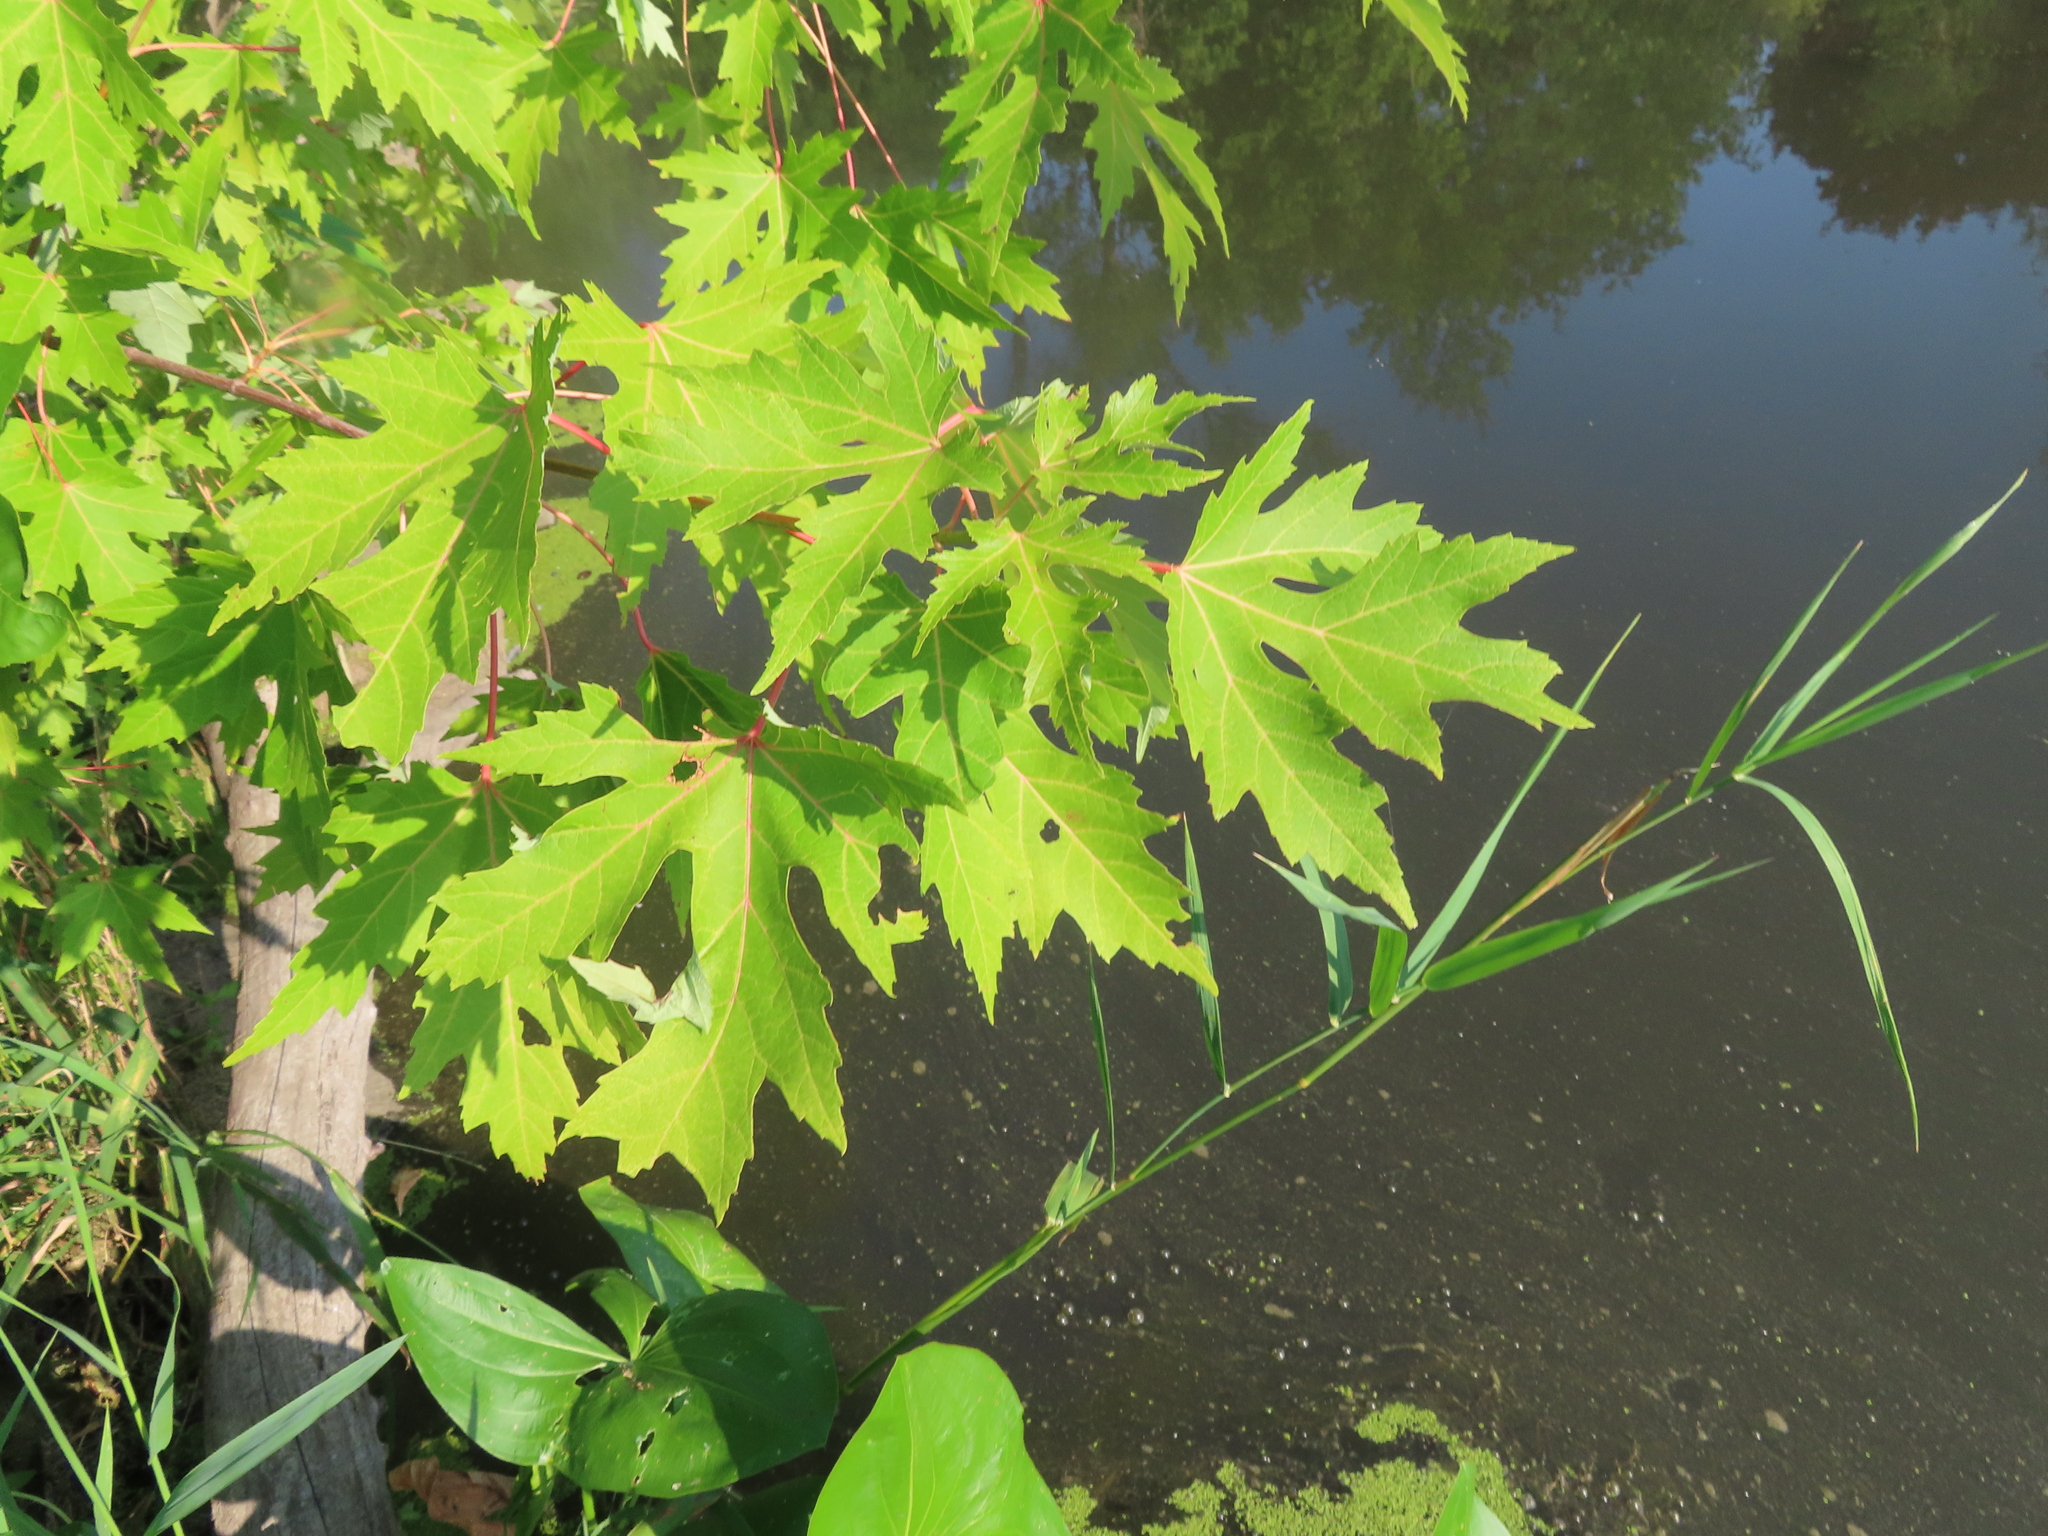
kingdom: Plantae
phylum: Tracheophyta
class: Magnoliopsida
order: Sapindales
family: Sapindaceae
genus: Acer
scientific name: Acer saccharinum
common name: Silver maple
